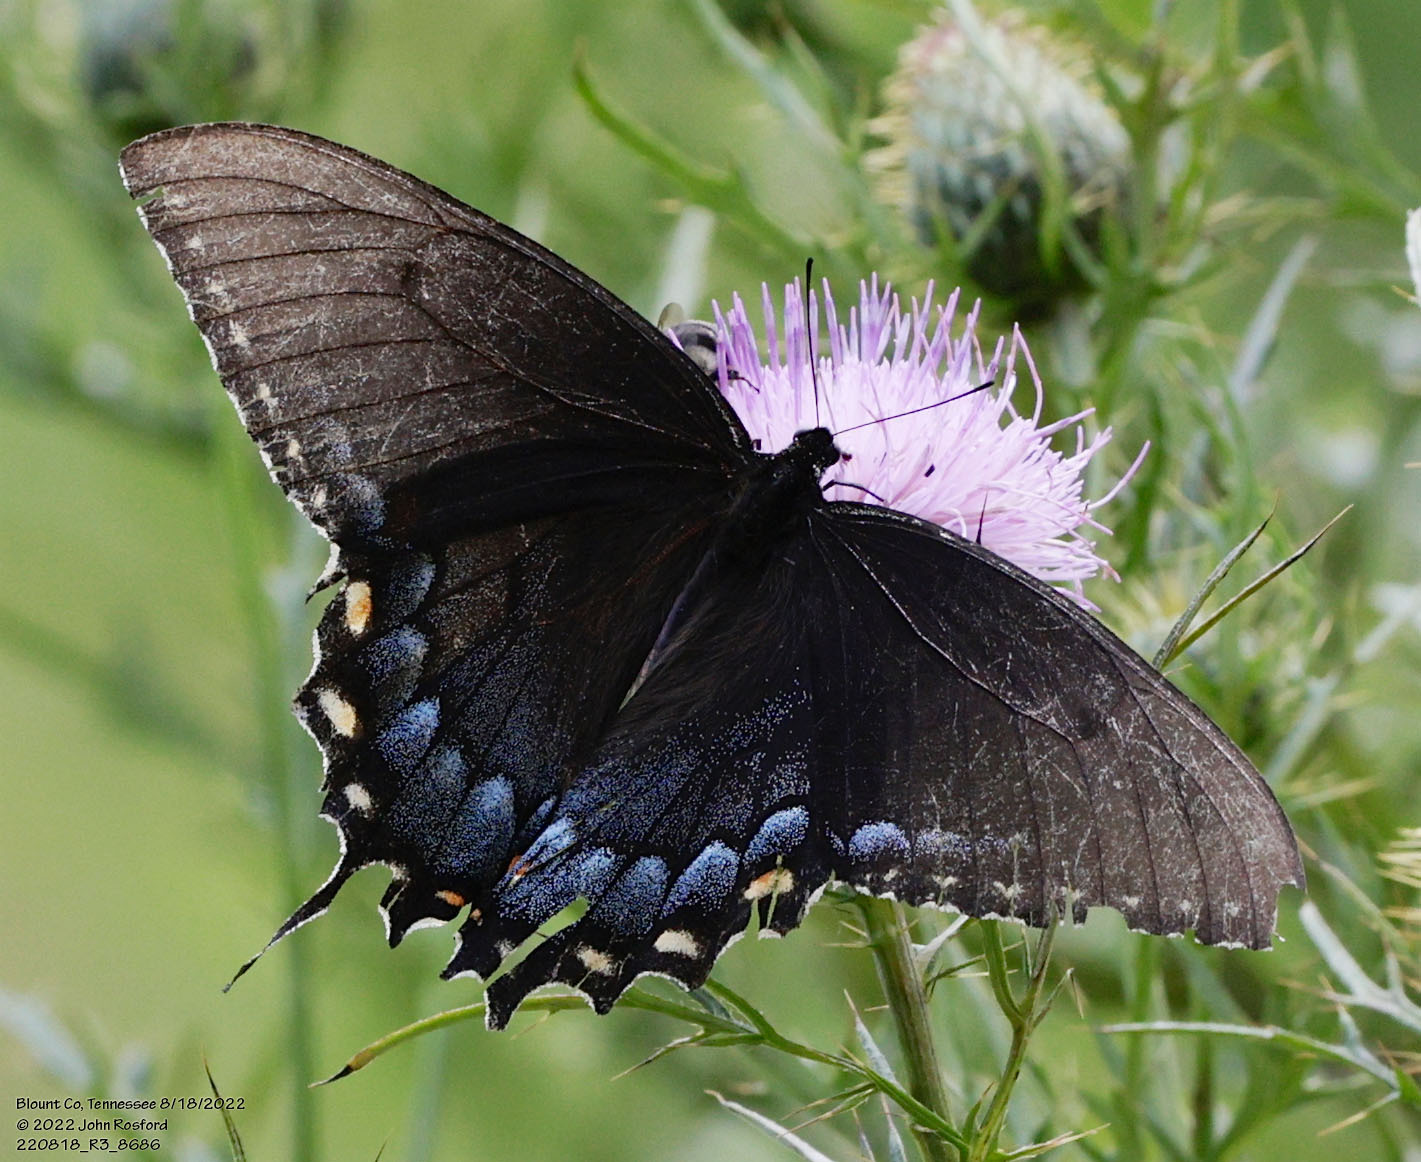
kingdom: Animalia
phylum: Arthropoda
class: Insecta
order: Lepidoptera
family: Papilionidae
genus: Papilio
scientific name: Papilio glaucus
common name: Tiger swallowtail
